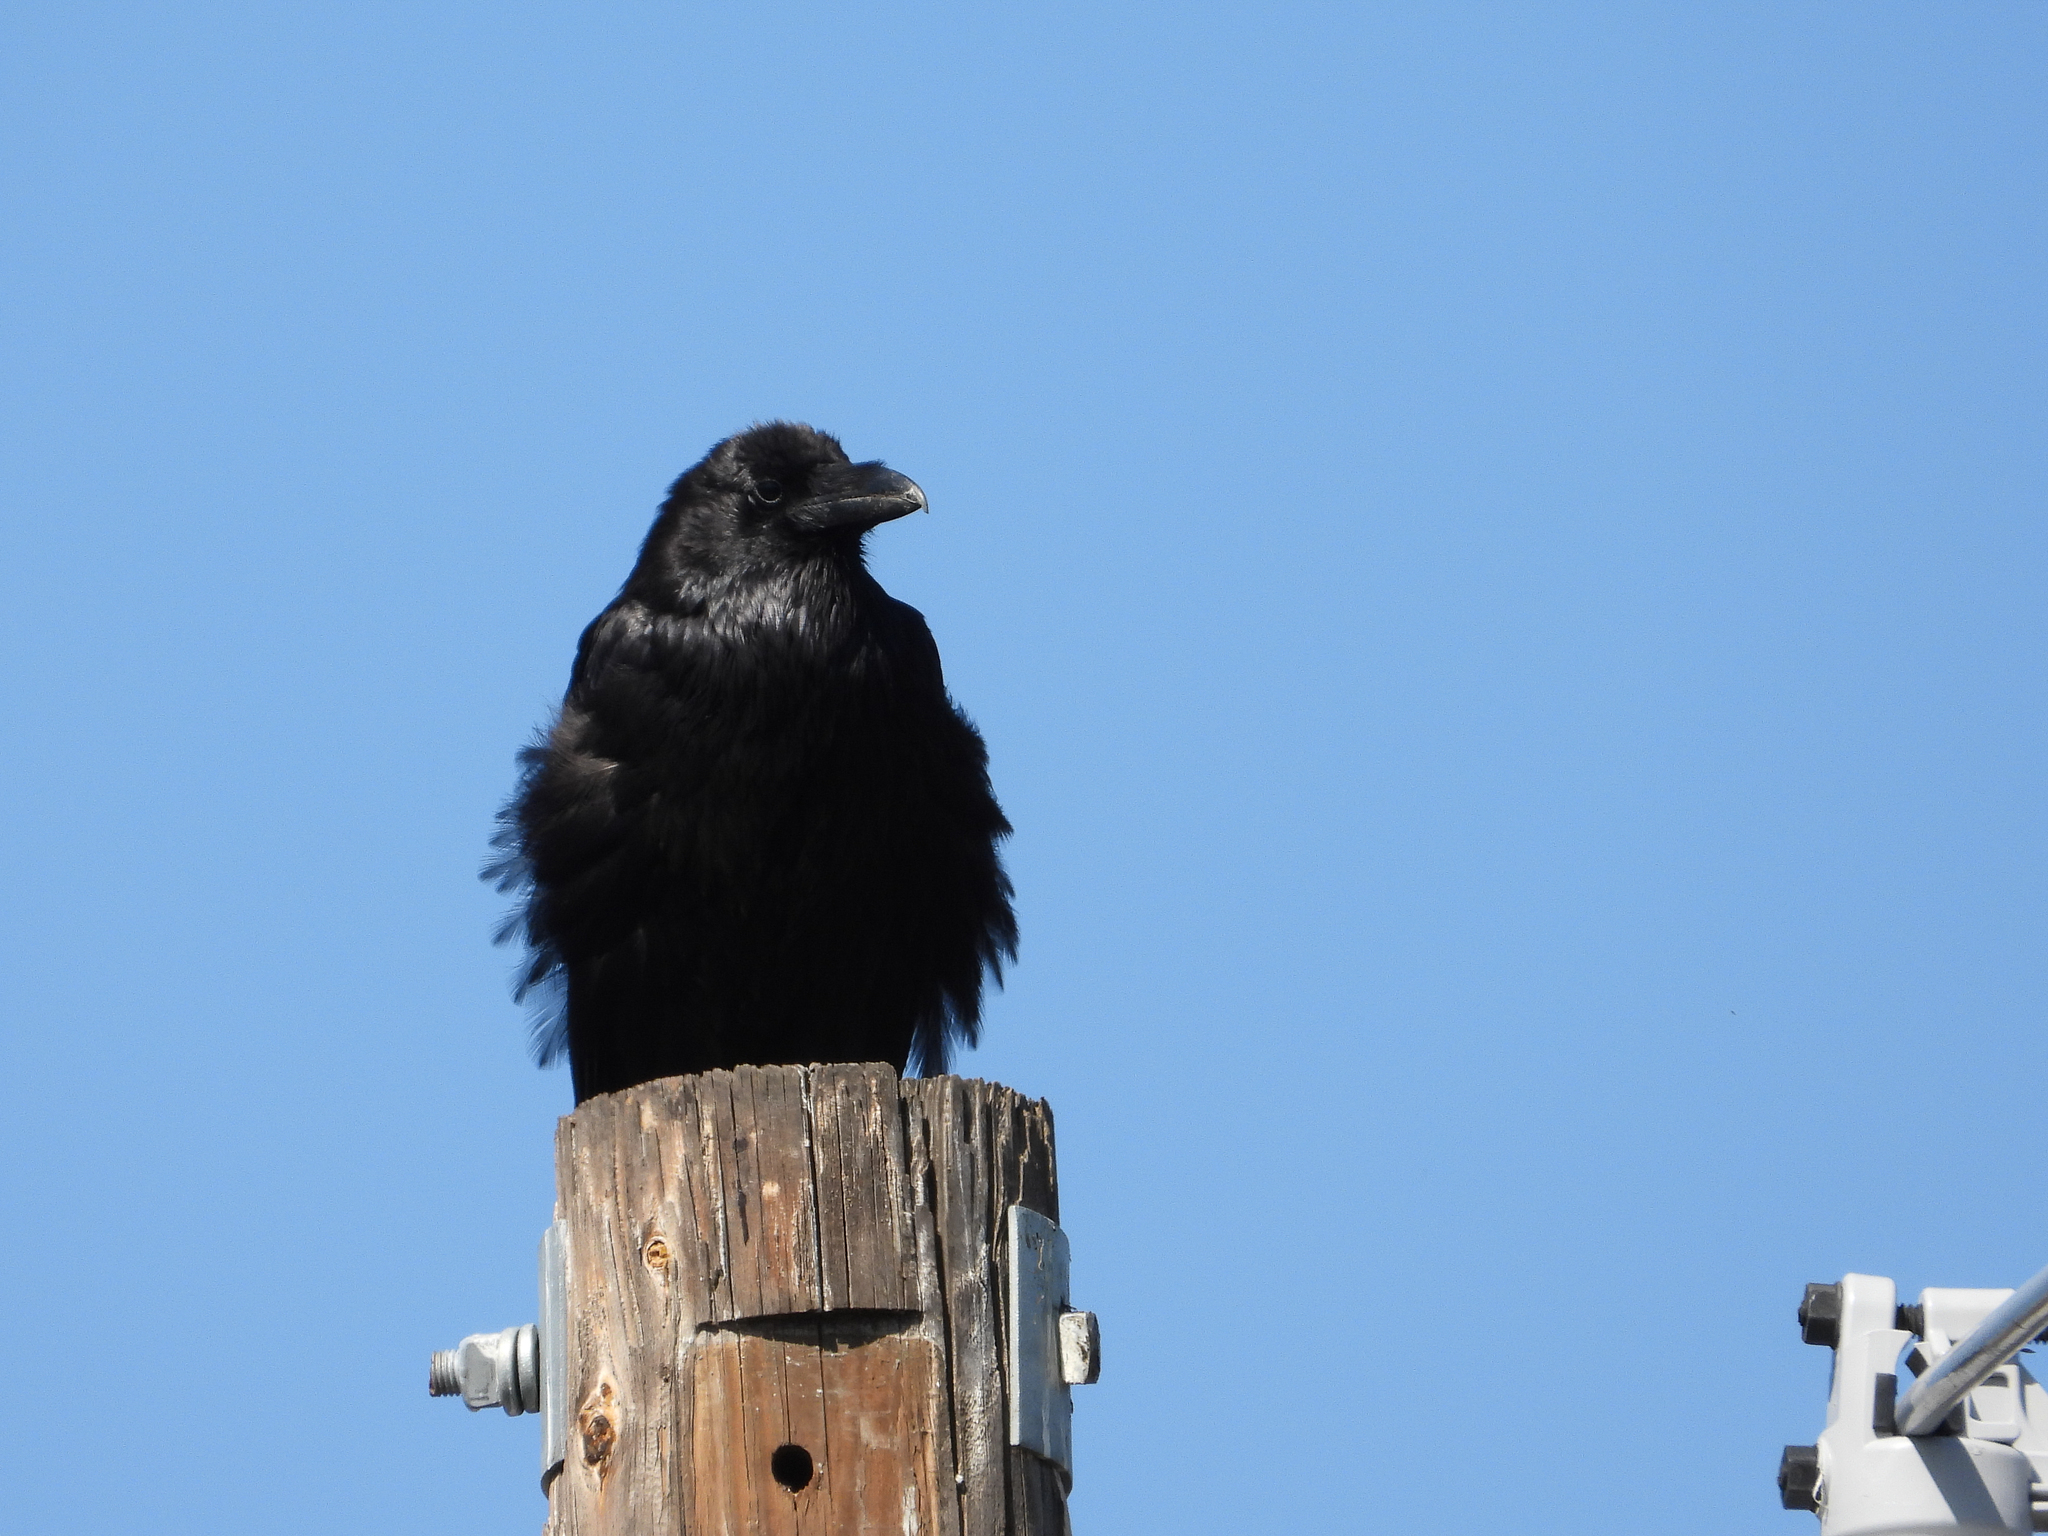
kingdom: Animalia
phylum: Chordata
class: Aves
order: Passeriformes
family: Corvidae
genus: Corvus
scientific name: Corvus corax
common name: Common raven
